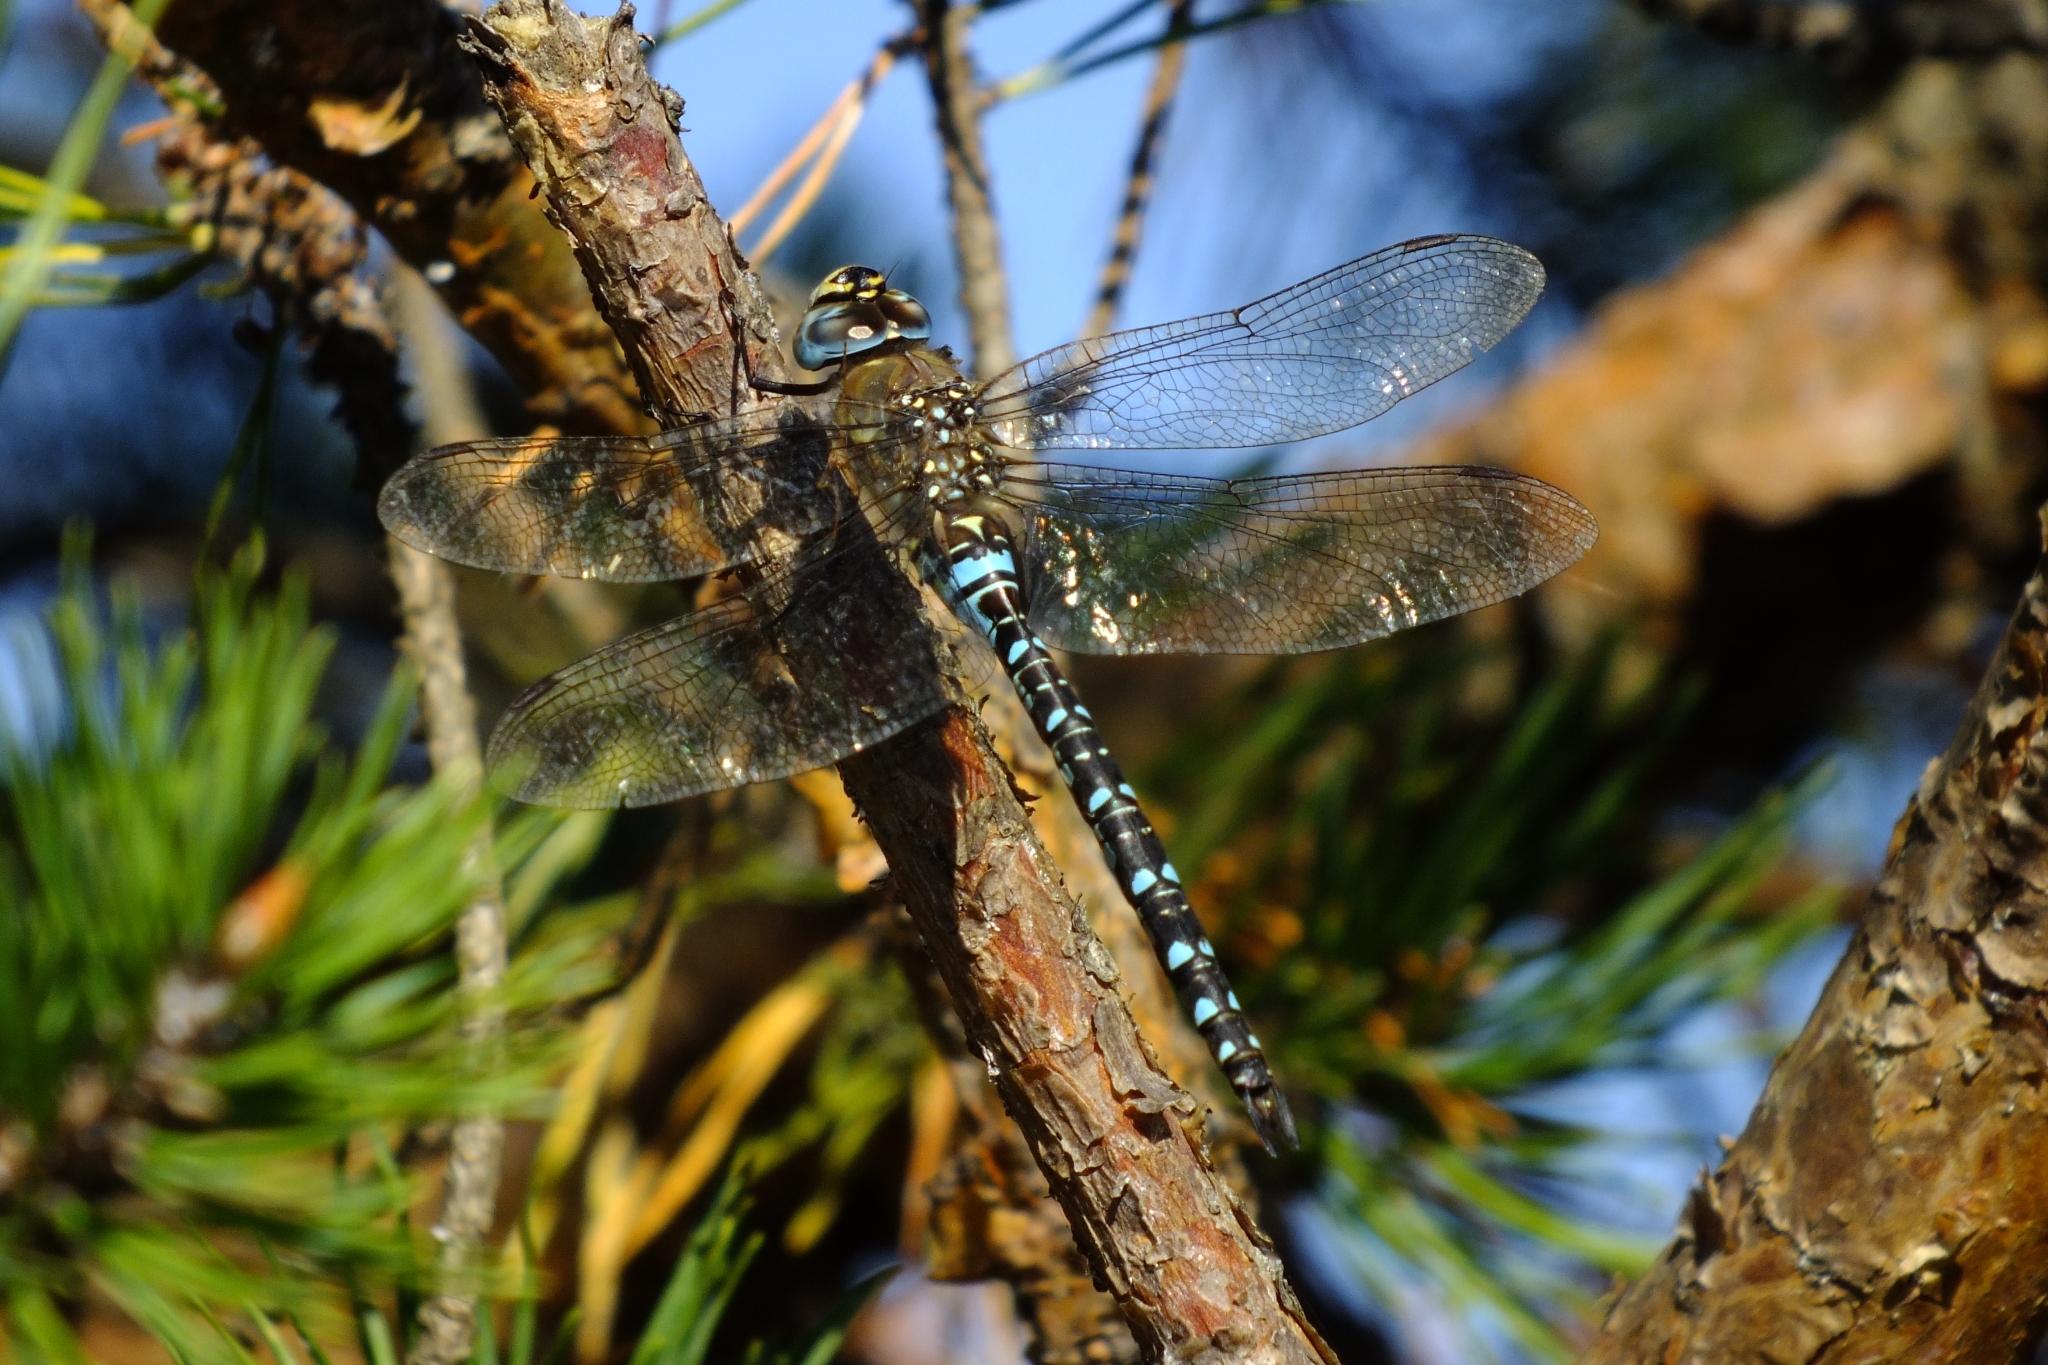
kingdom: Animalia
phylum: Arthropoda
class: Insecta
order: Odonata
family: Aeshnidae
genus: Aeshna
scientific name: Aeshna mixta
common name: Migrant hawker
